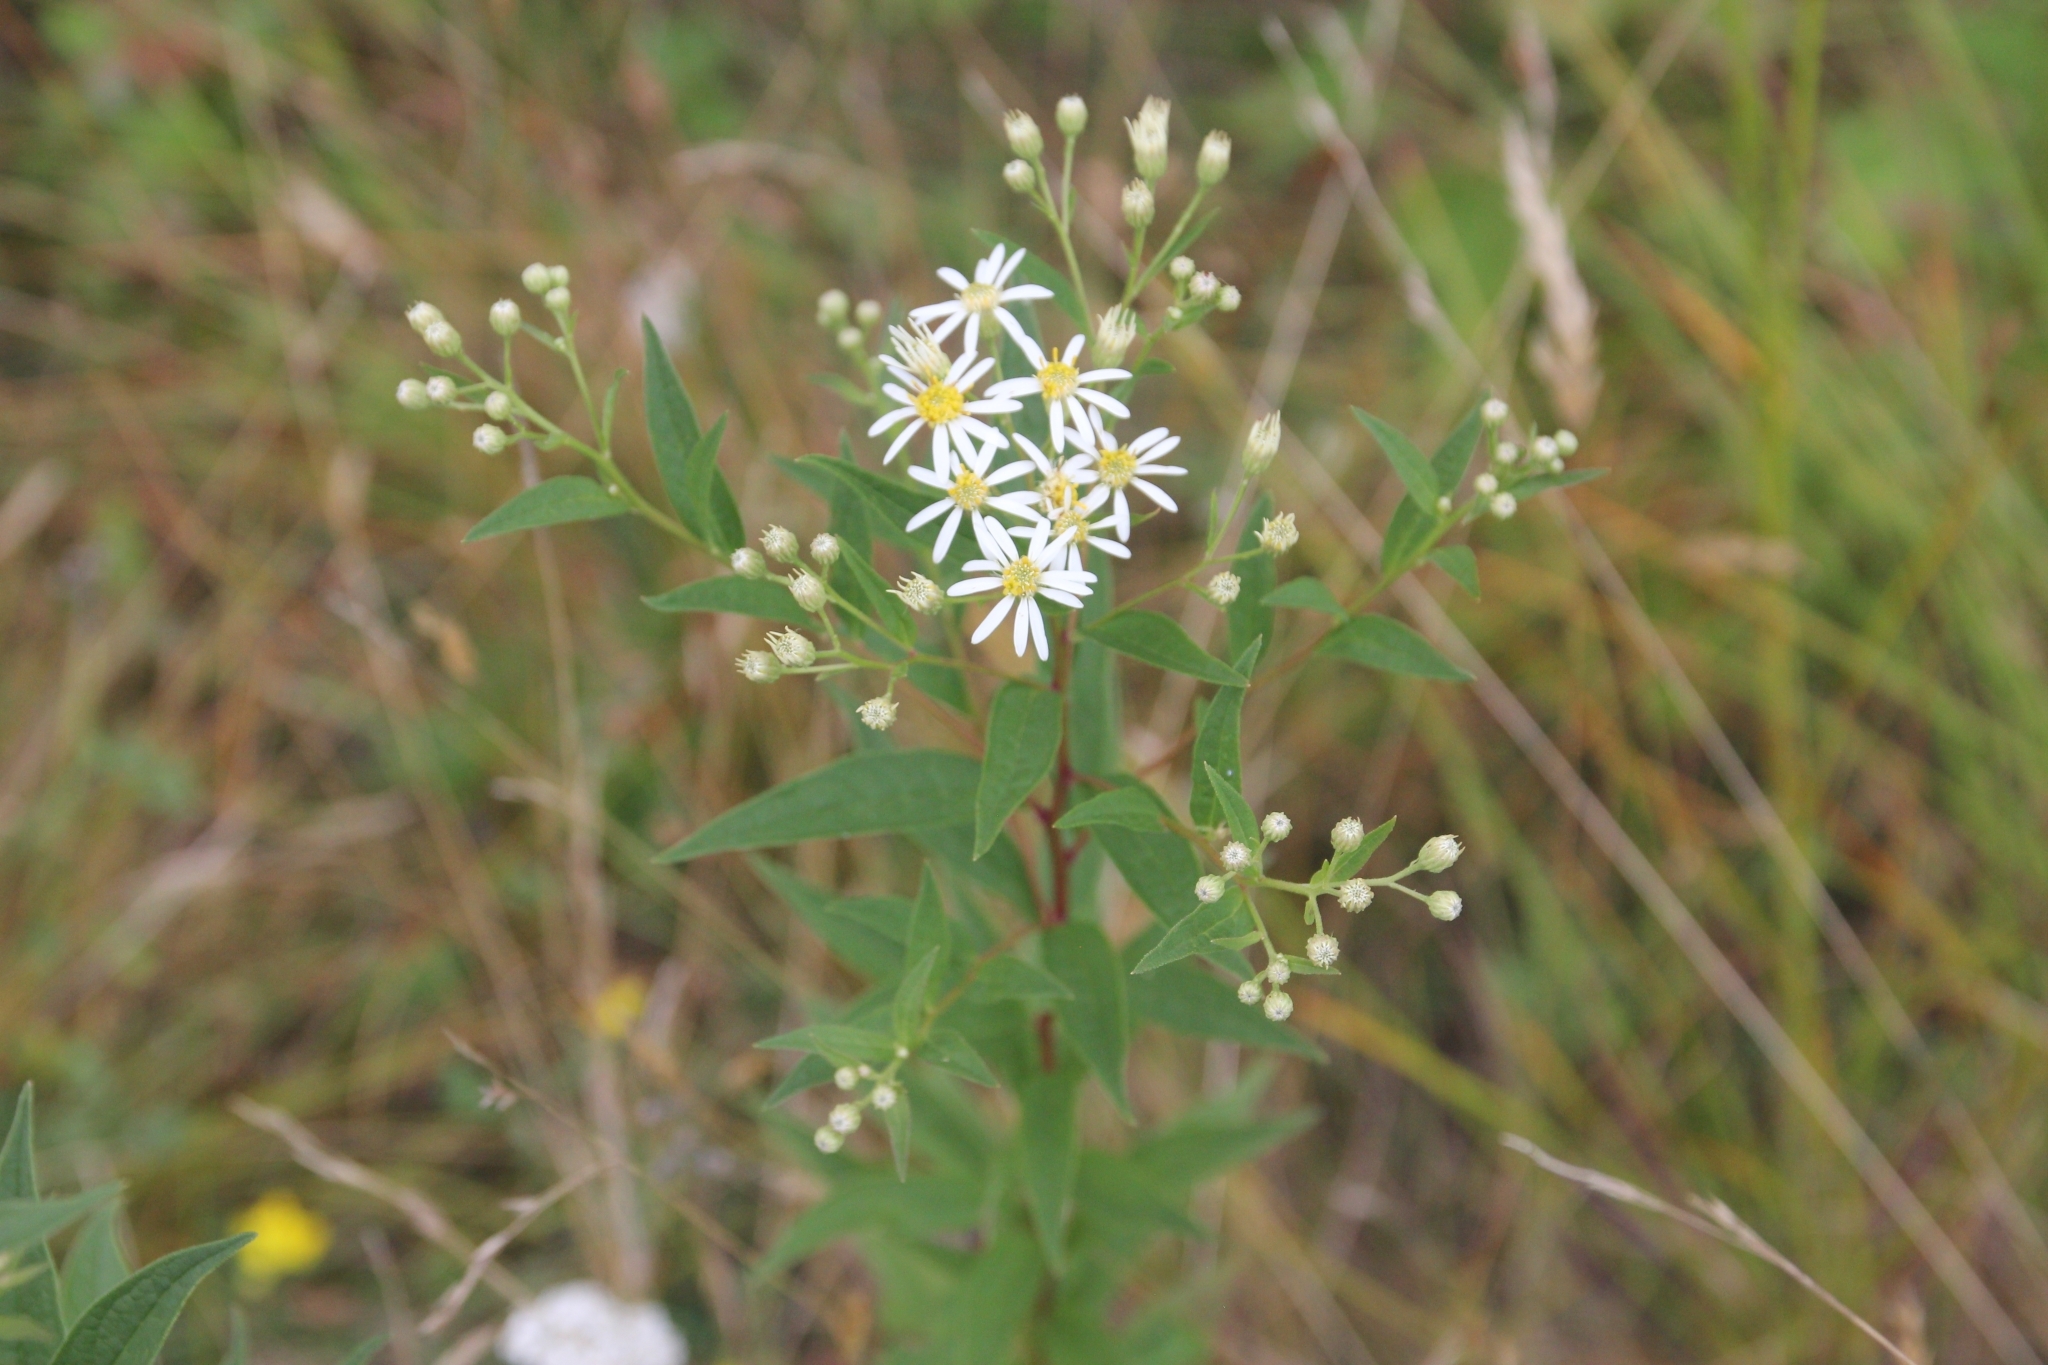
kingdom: Plantae
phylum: Tracheophyta
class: Magnoliopsida
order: Asterales
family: Asteraceae
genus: Doellingeria
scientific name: Doellingeria umbellata
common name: Flat-top white aster
